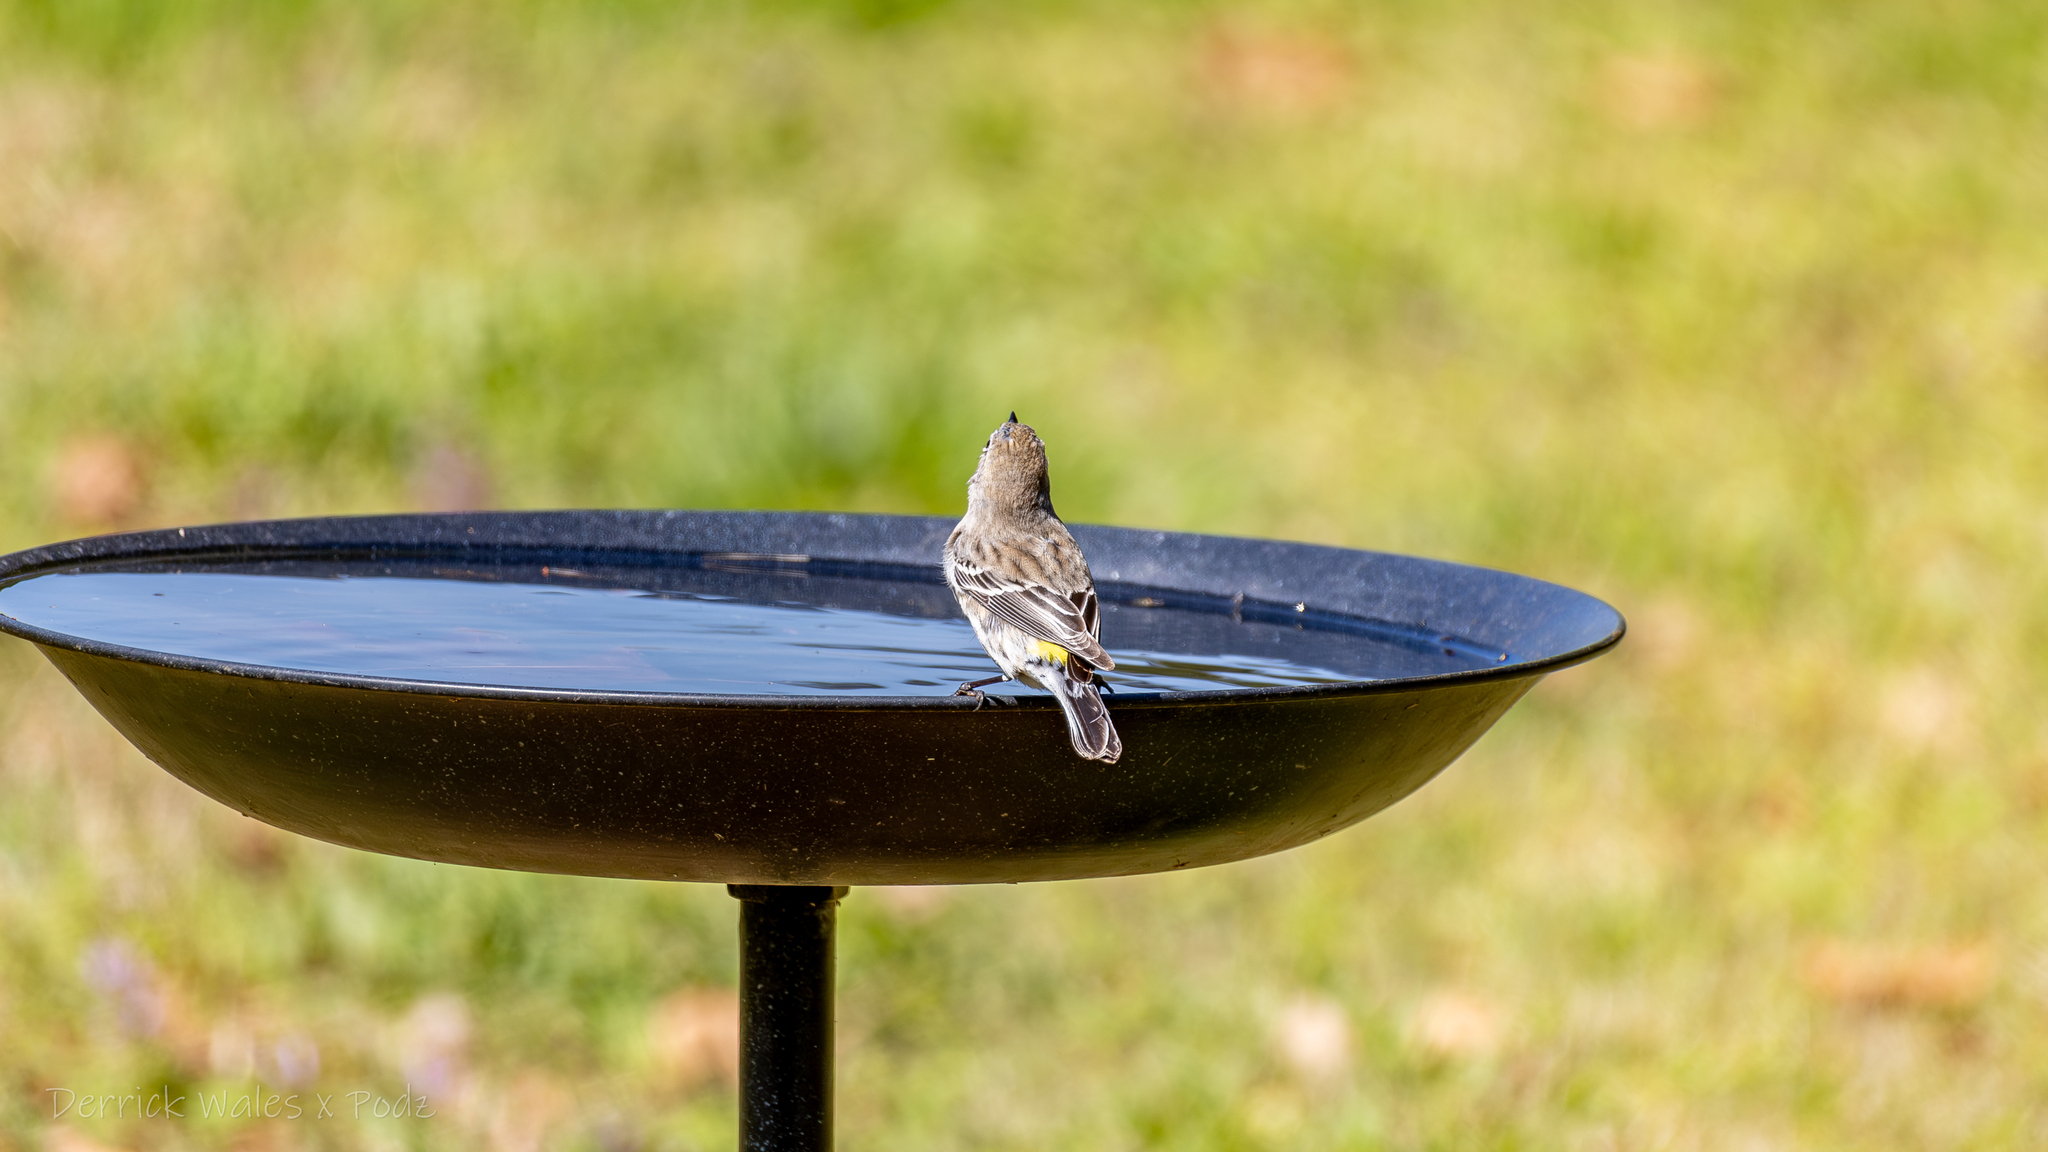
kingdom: Animalia
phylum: Chordata
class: Aves
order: Passeriformes
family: Parulidae
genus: Setophaga
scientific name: Setophaga coronata
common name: Myrtle warbler
